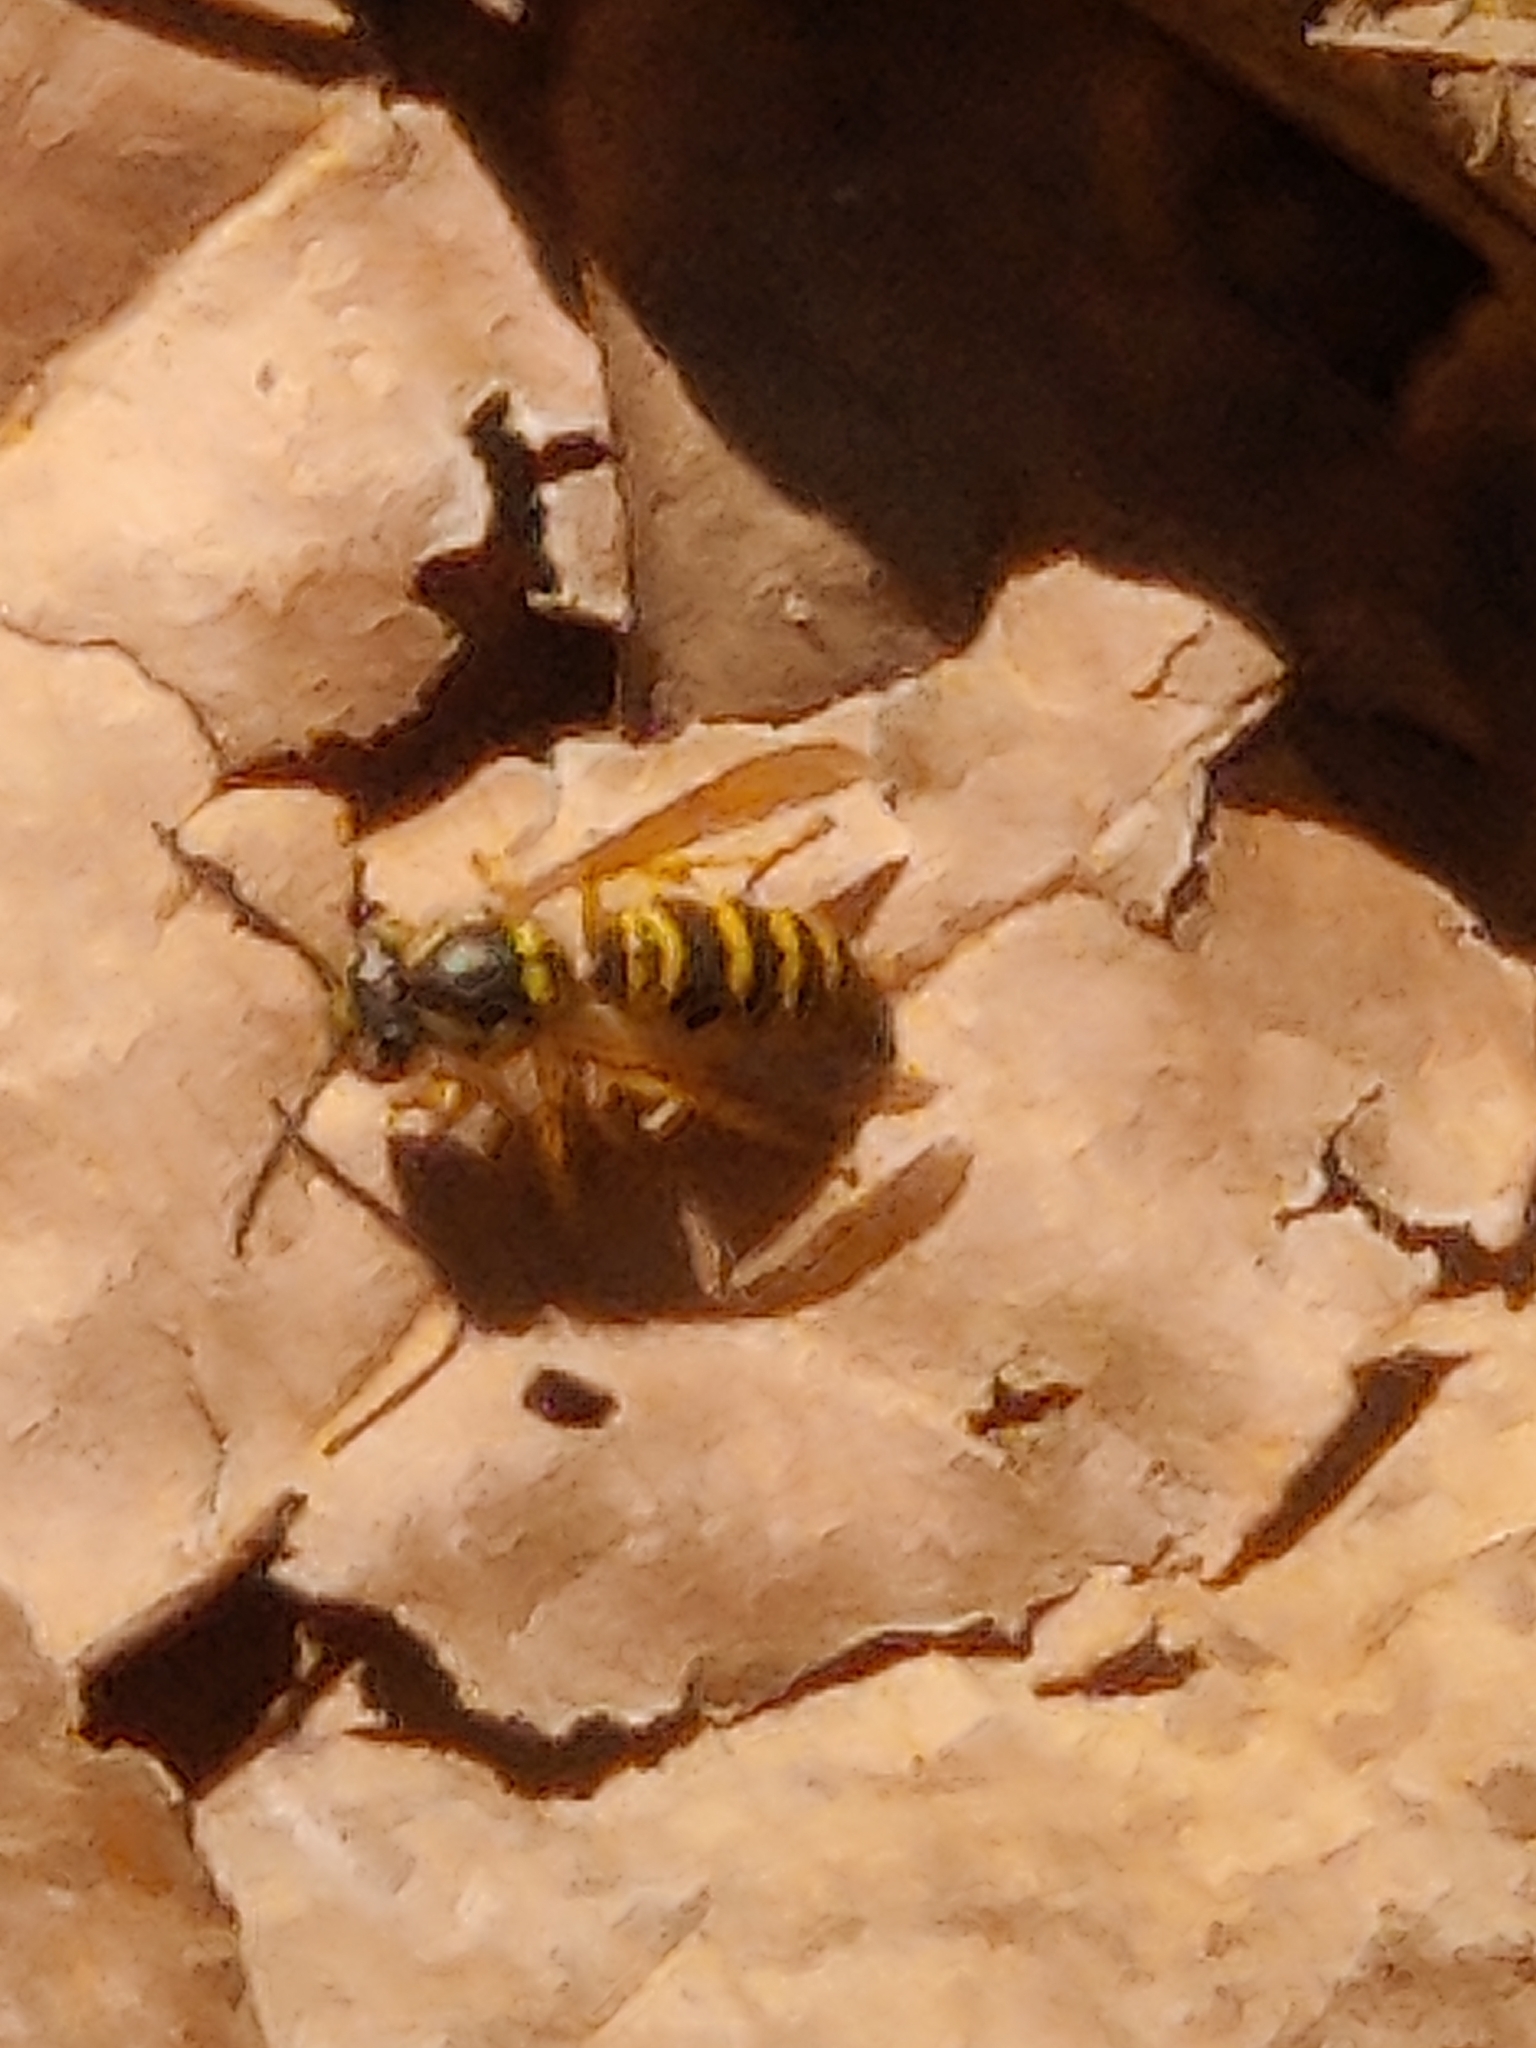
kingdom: Animalia
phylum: Arthropoda
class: Insecta
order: Hymenoptera
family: Vespidae
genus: Vespula
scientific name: Vespula maculifrons
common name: Eastern yellowjacket
